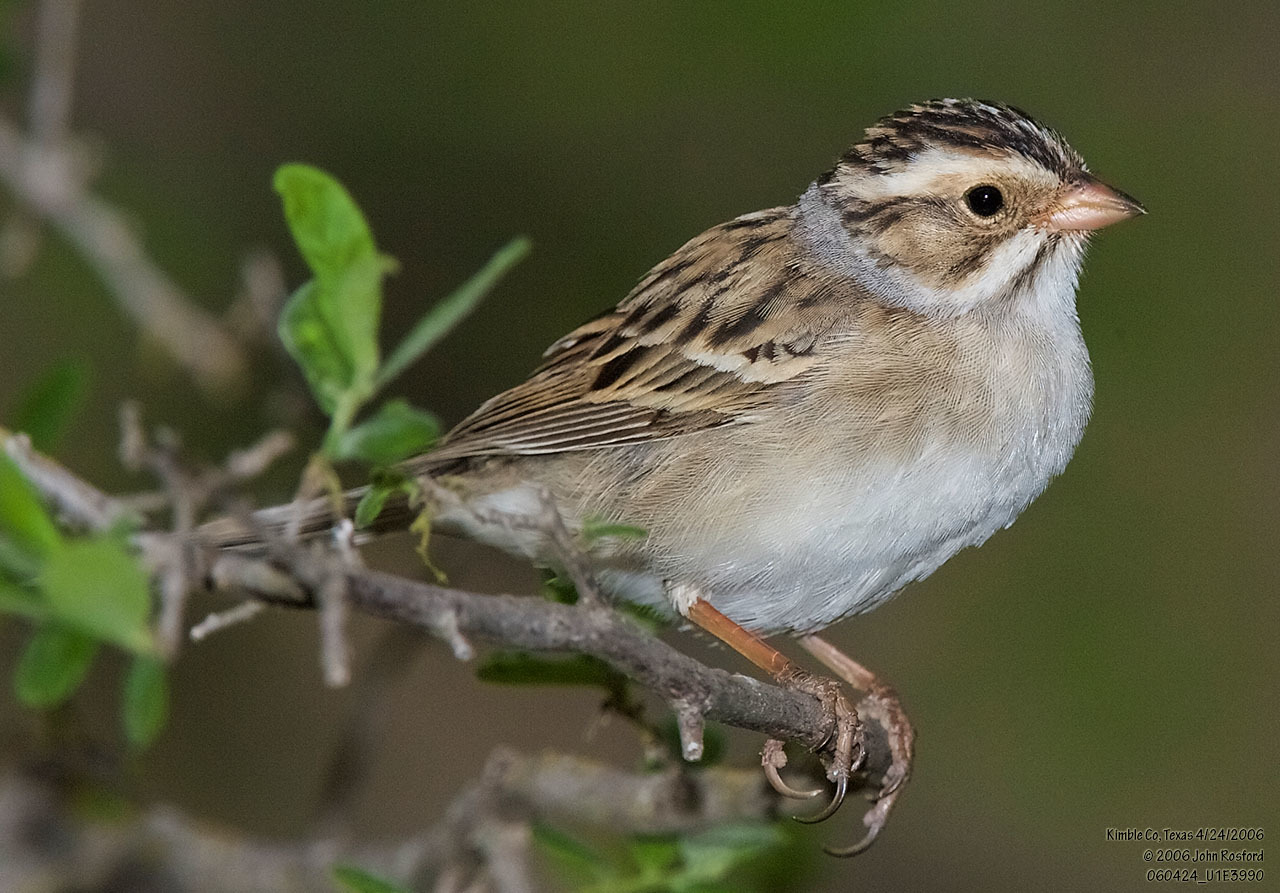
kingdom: Animalia
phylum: Chordata
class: Aves
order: Passeriformes
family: Passerellidae
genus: Spizella
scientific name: Spizella pallida
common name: Clay-colored sparrow
